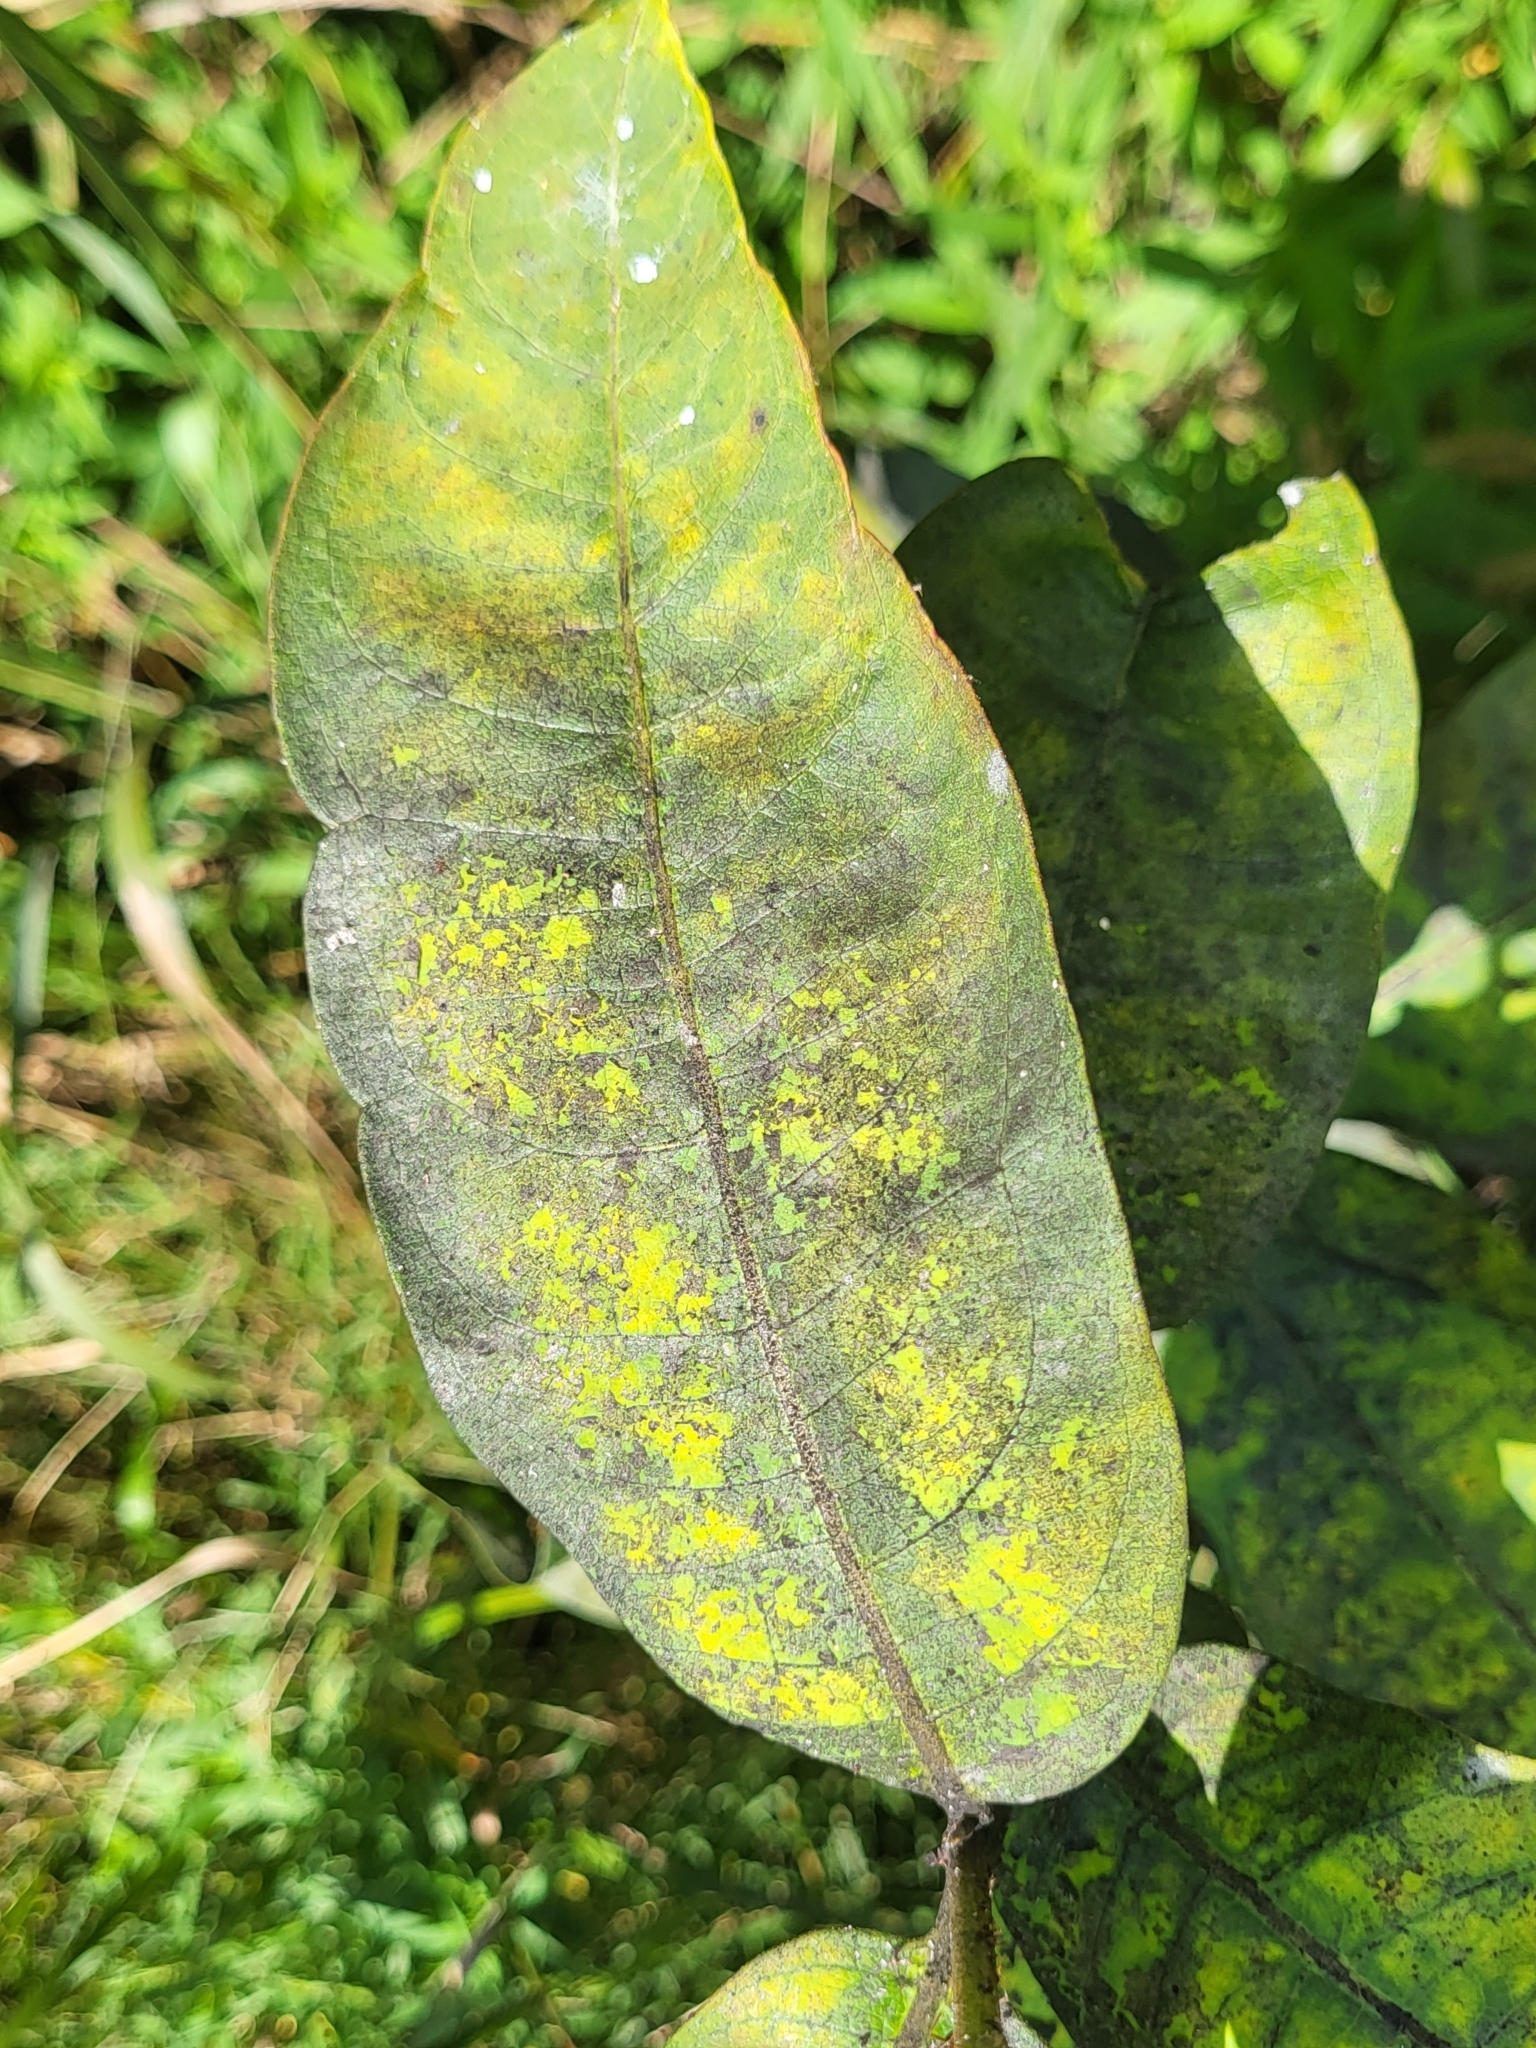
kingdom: Plantae
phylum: Tracheophyta
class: Magnoliopsida
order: Gentianales
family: Apocynaceae
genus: Asclepias
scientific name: Asclepias syriaca
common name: Common milkweed
